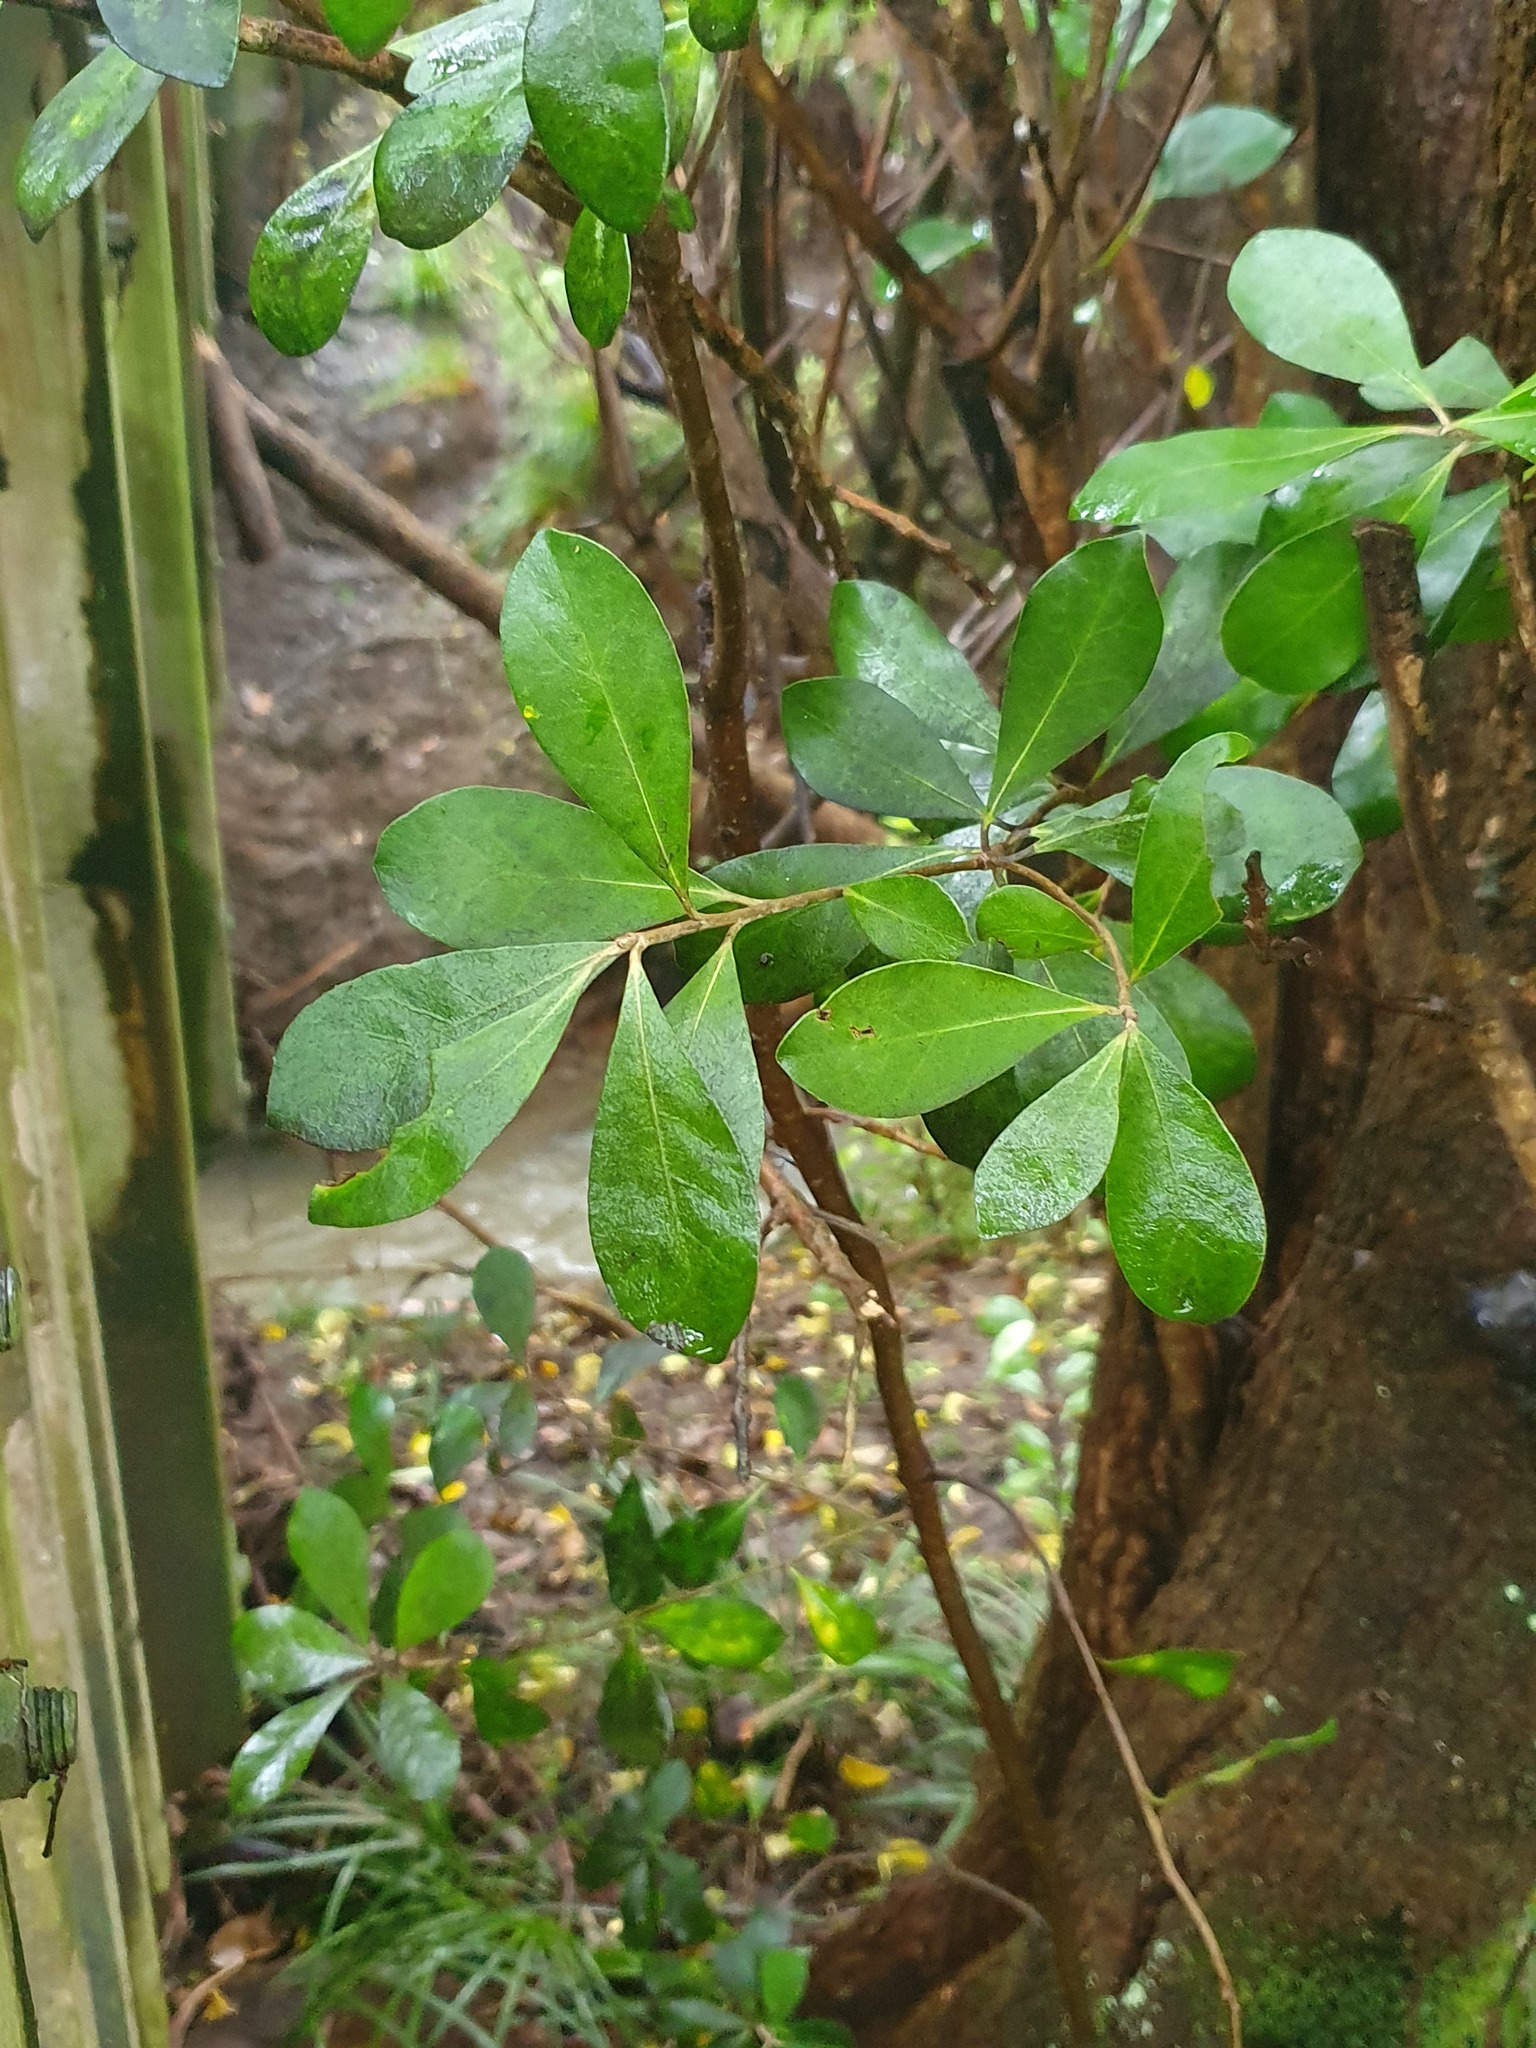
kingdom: Plantae
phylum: Tracheophyta
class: Magnoliopsida
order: Apiales
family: Pittosporaceae
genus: Pittosporum
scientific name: Pittosporum crassifolium
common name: Karo
